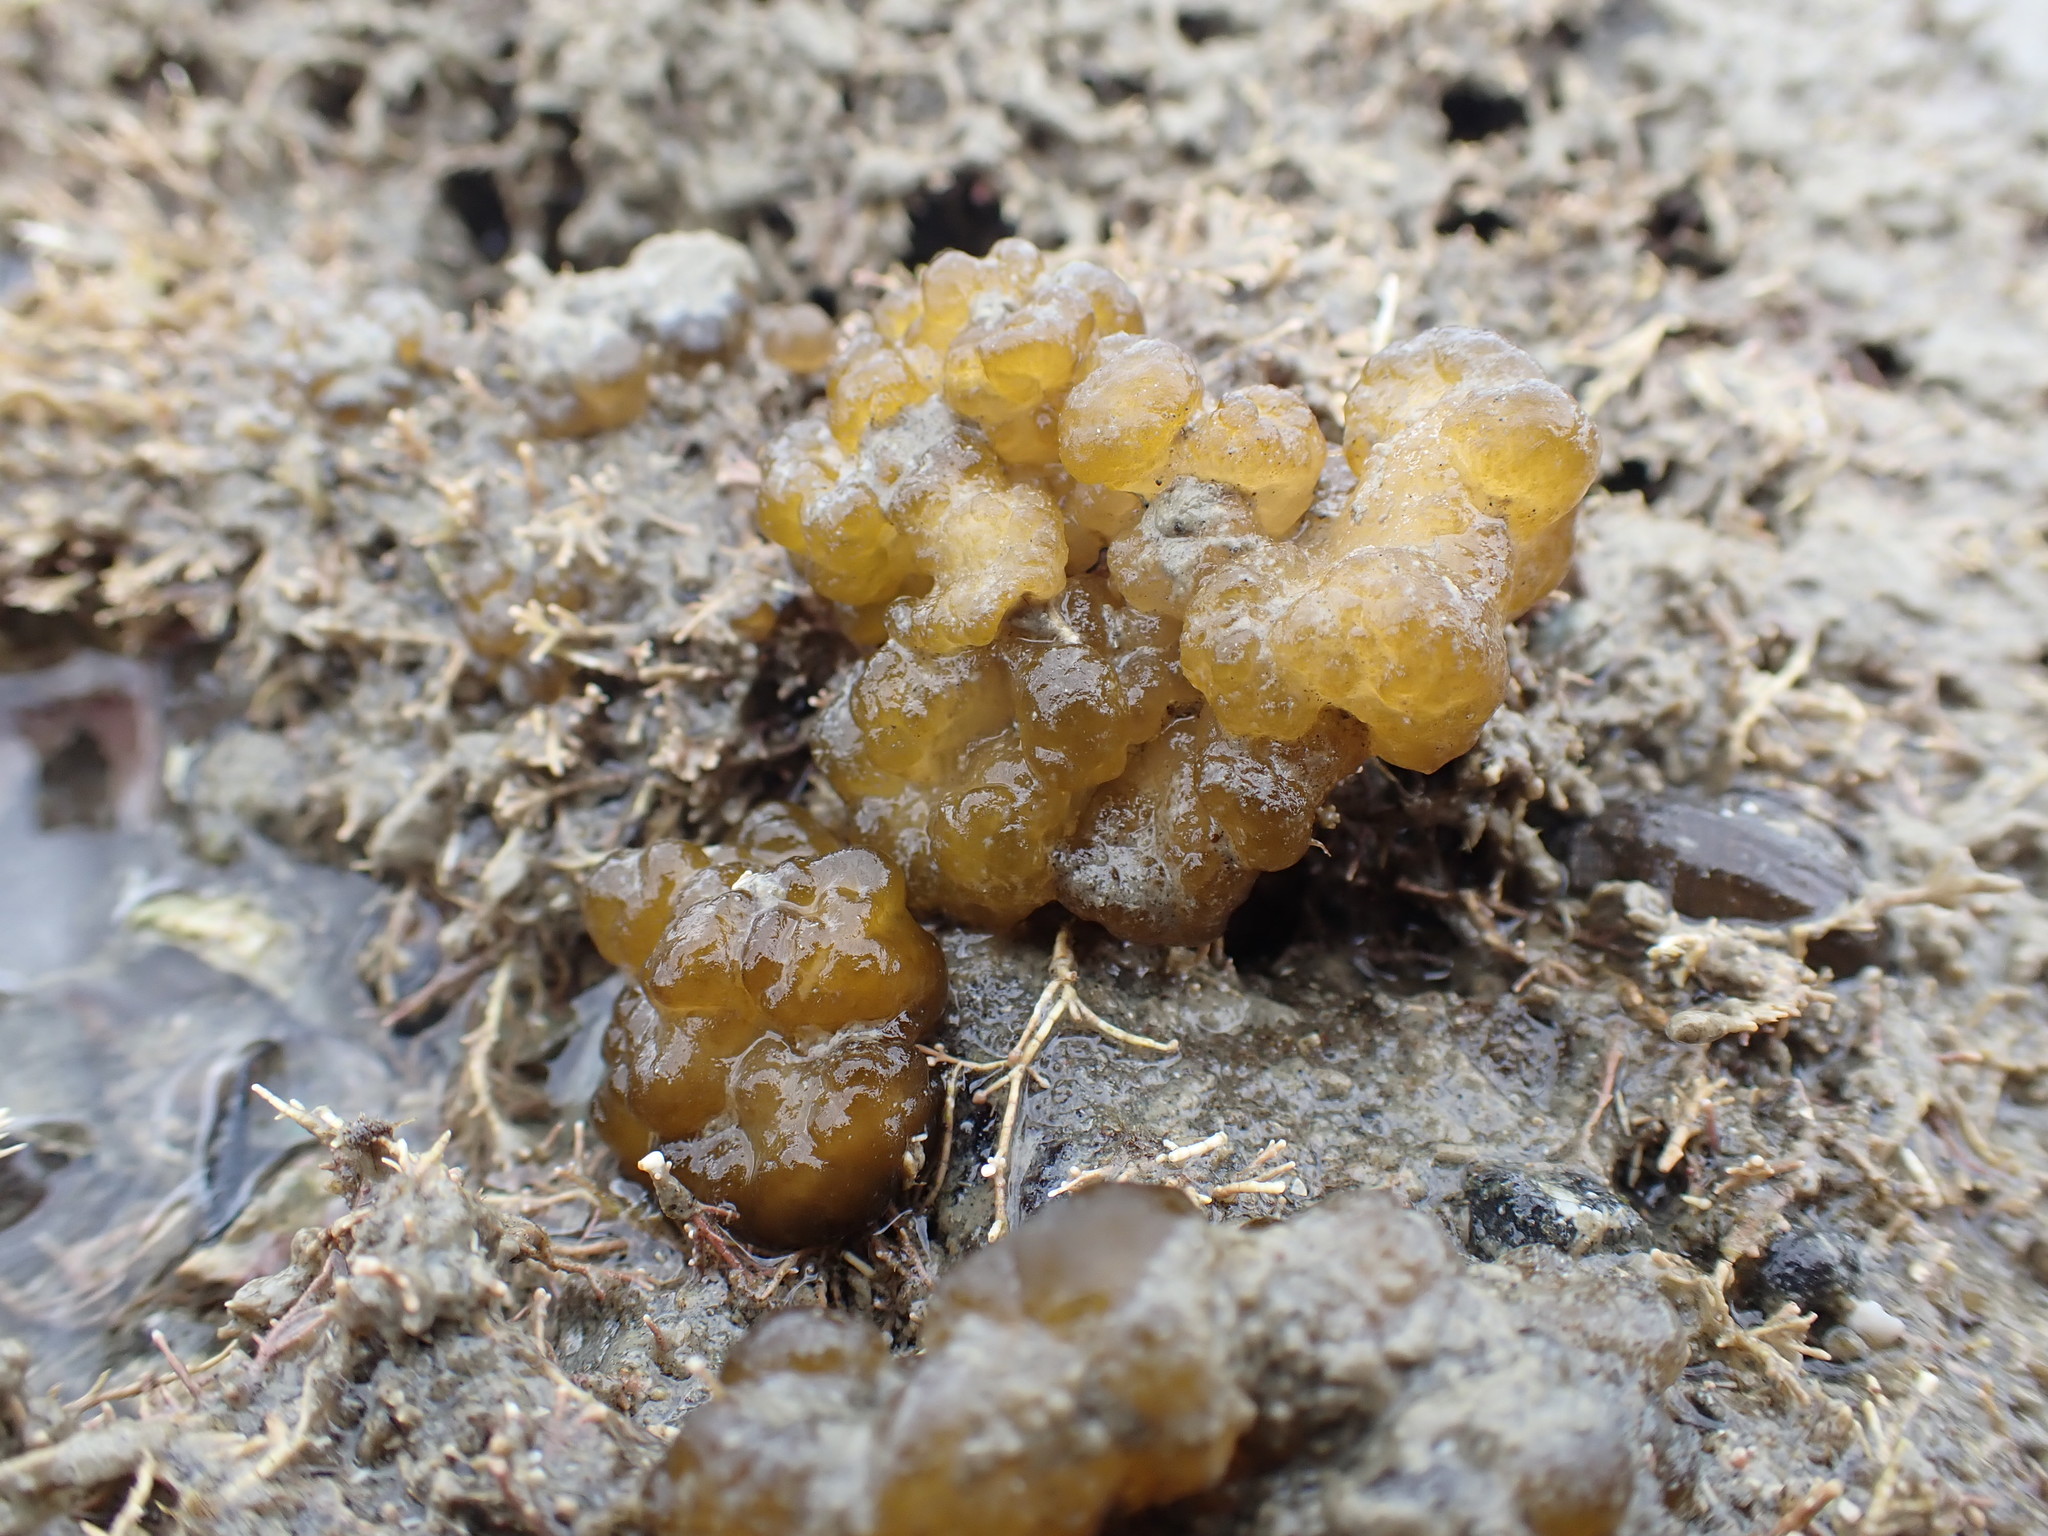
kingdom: Chromista
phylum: Ochrophyta
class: Phaeophyceae
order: Ectocarpales
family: Chordariaceae
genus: Leathesia
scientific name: Leathesia marina
